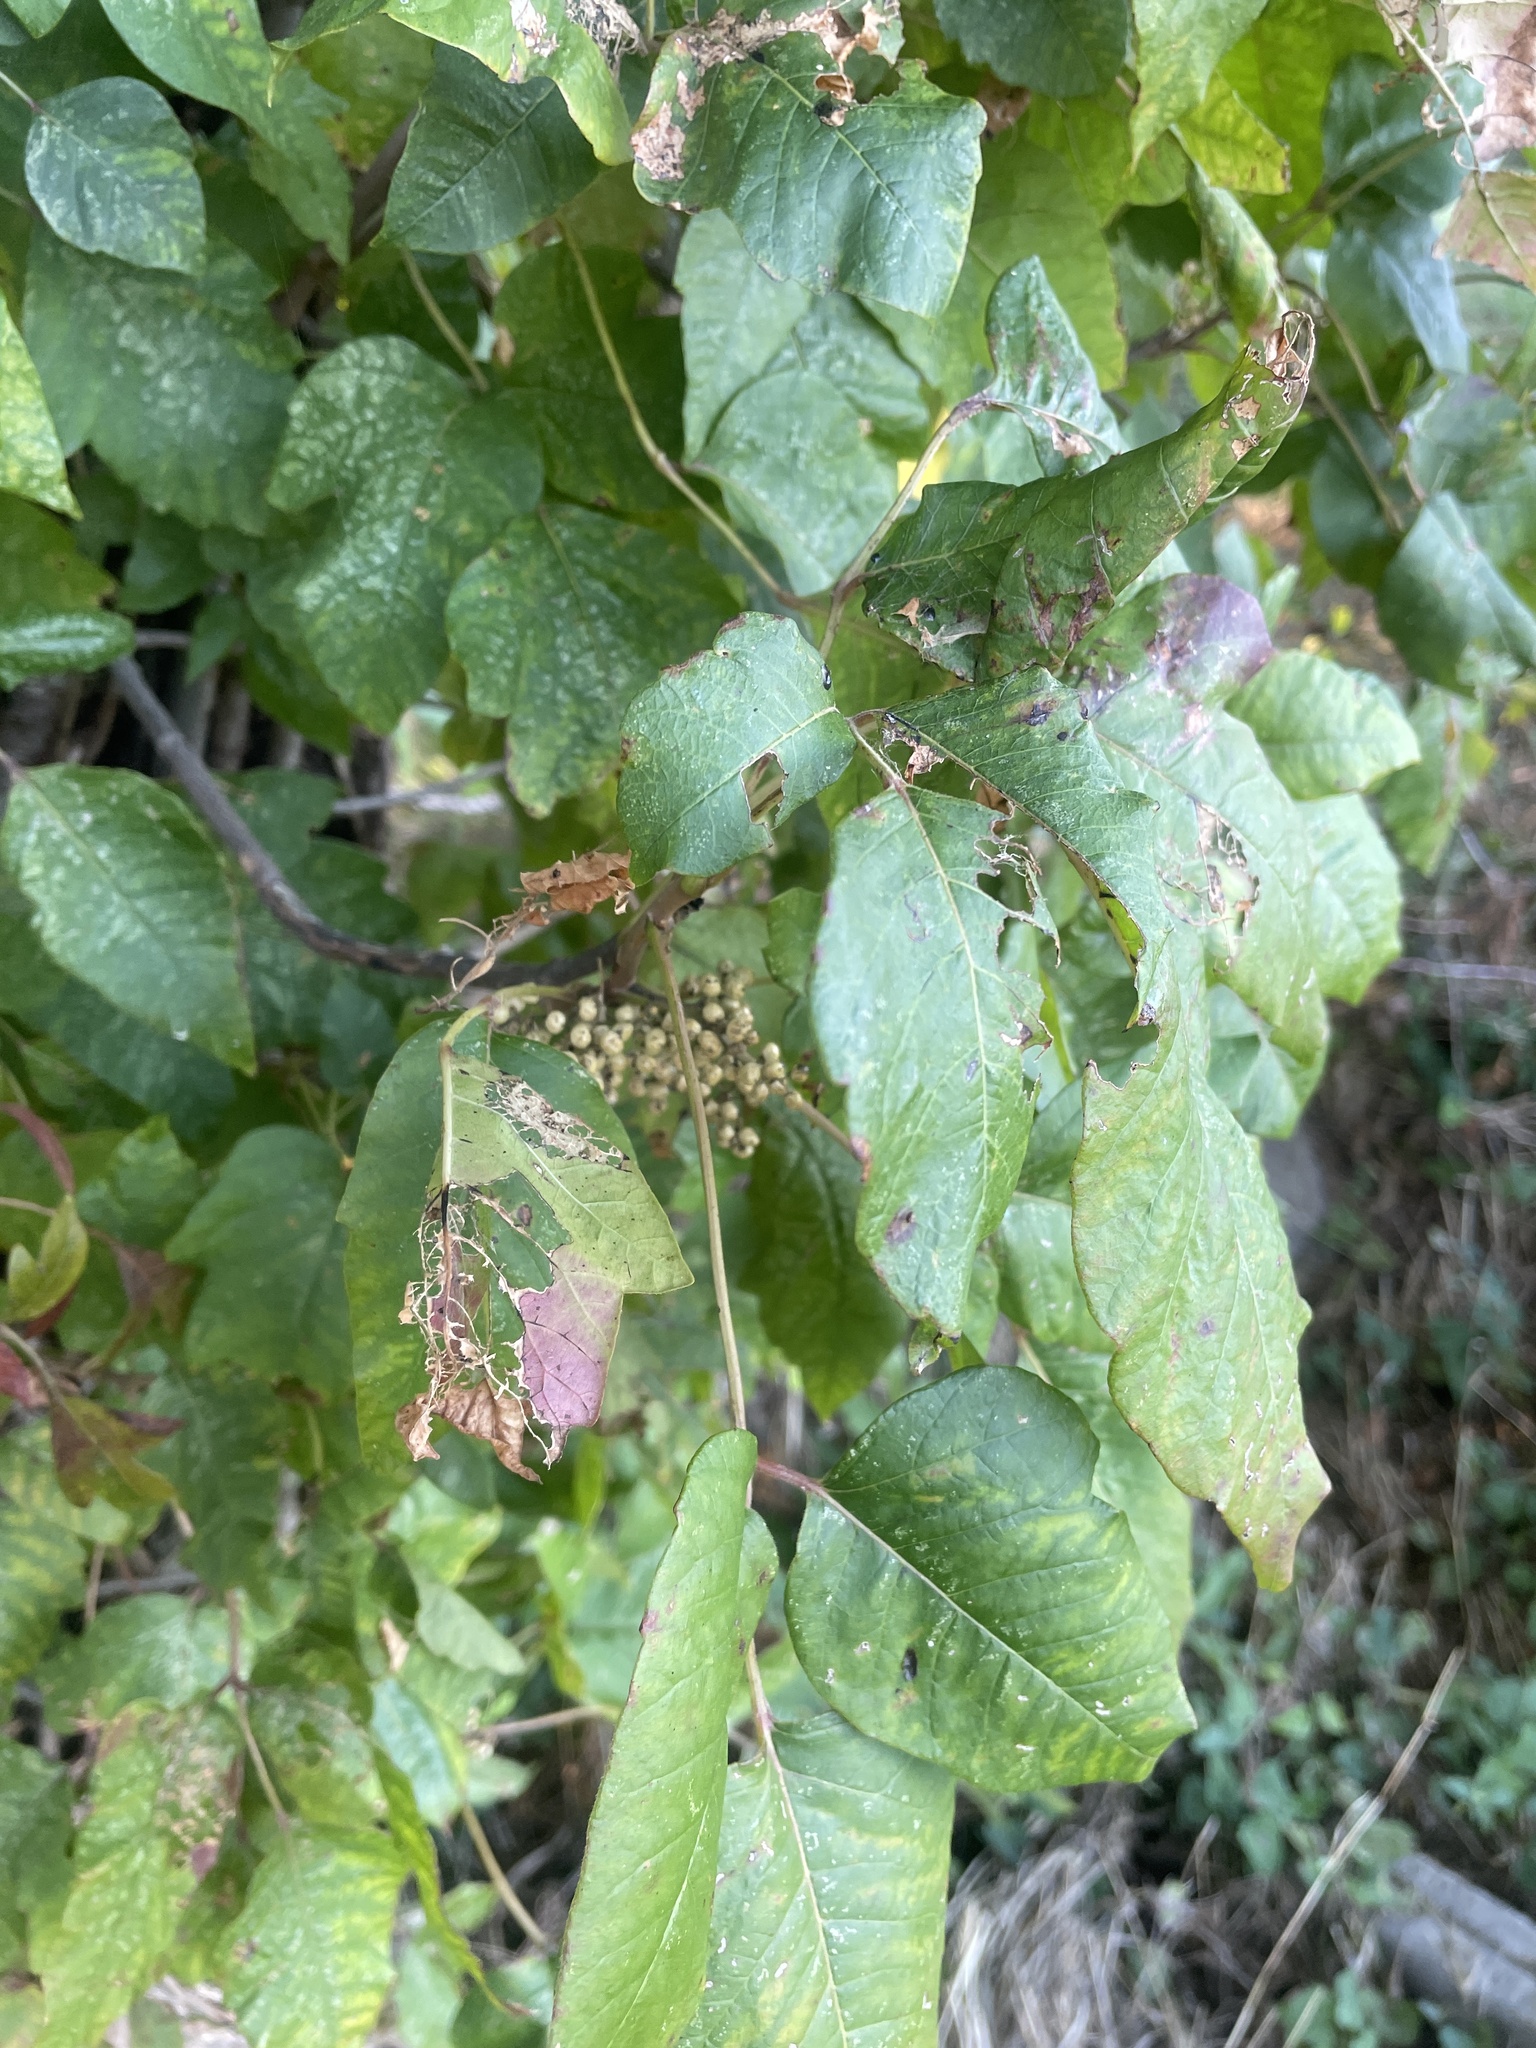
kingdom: Plantae
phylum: Tracheophyta
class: Magnoliopsida
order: Sapindales
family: Anacardiaceae
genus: Toxicodendron
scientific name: Toxicodendron radicans
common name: Poison ivy
